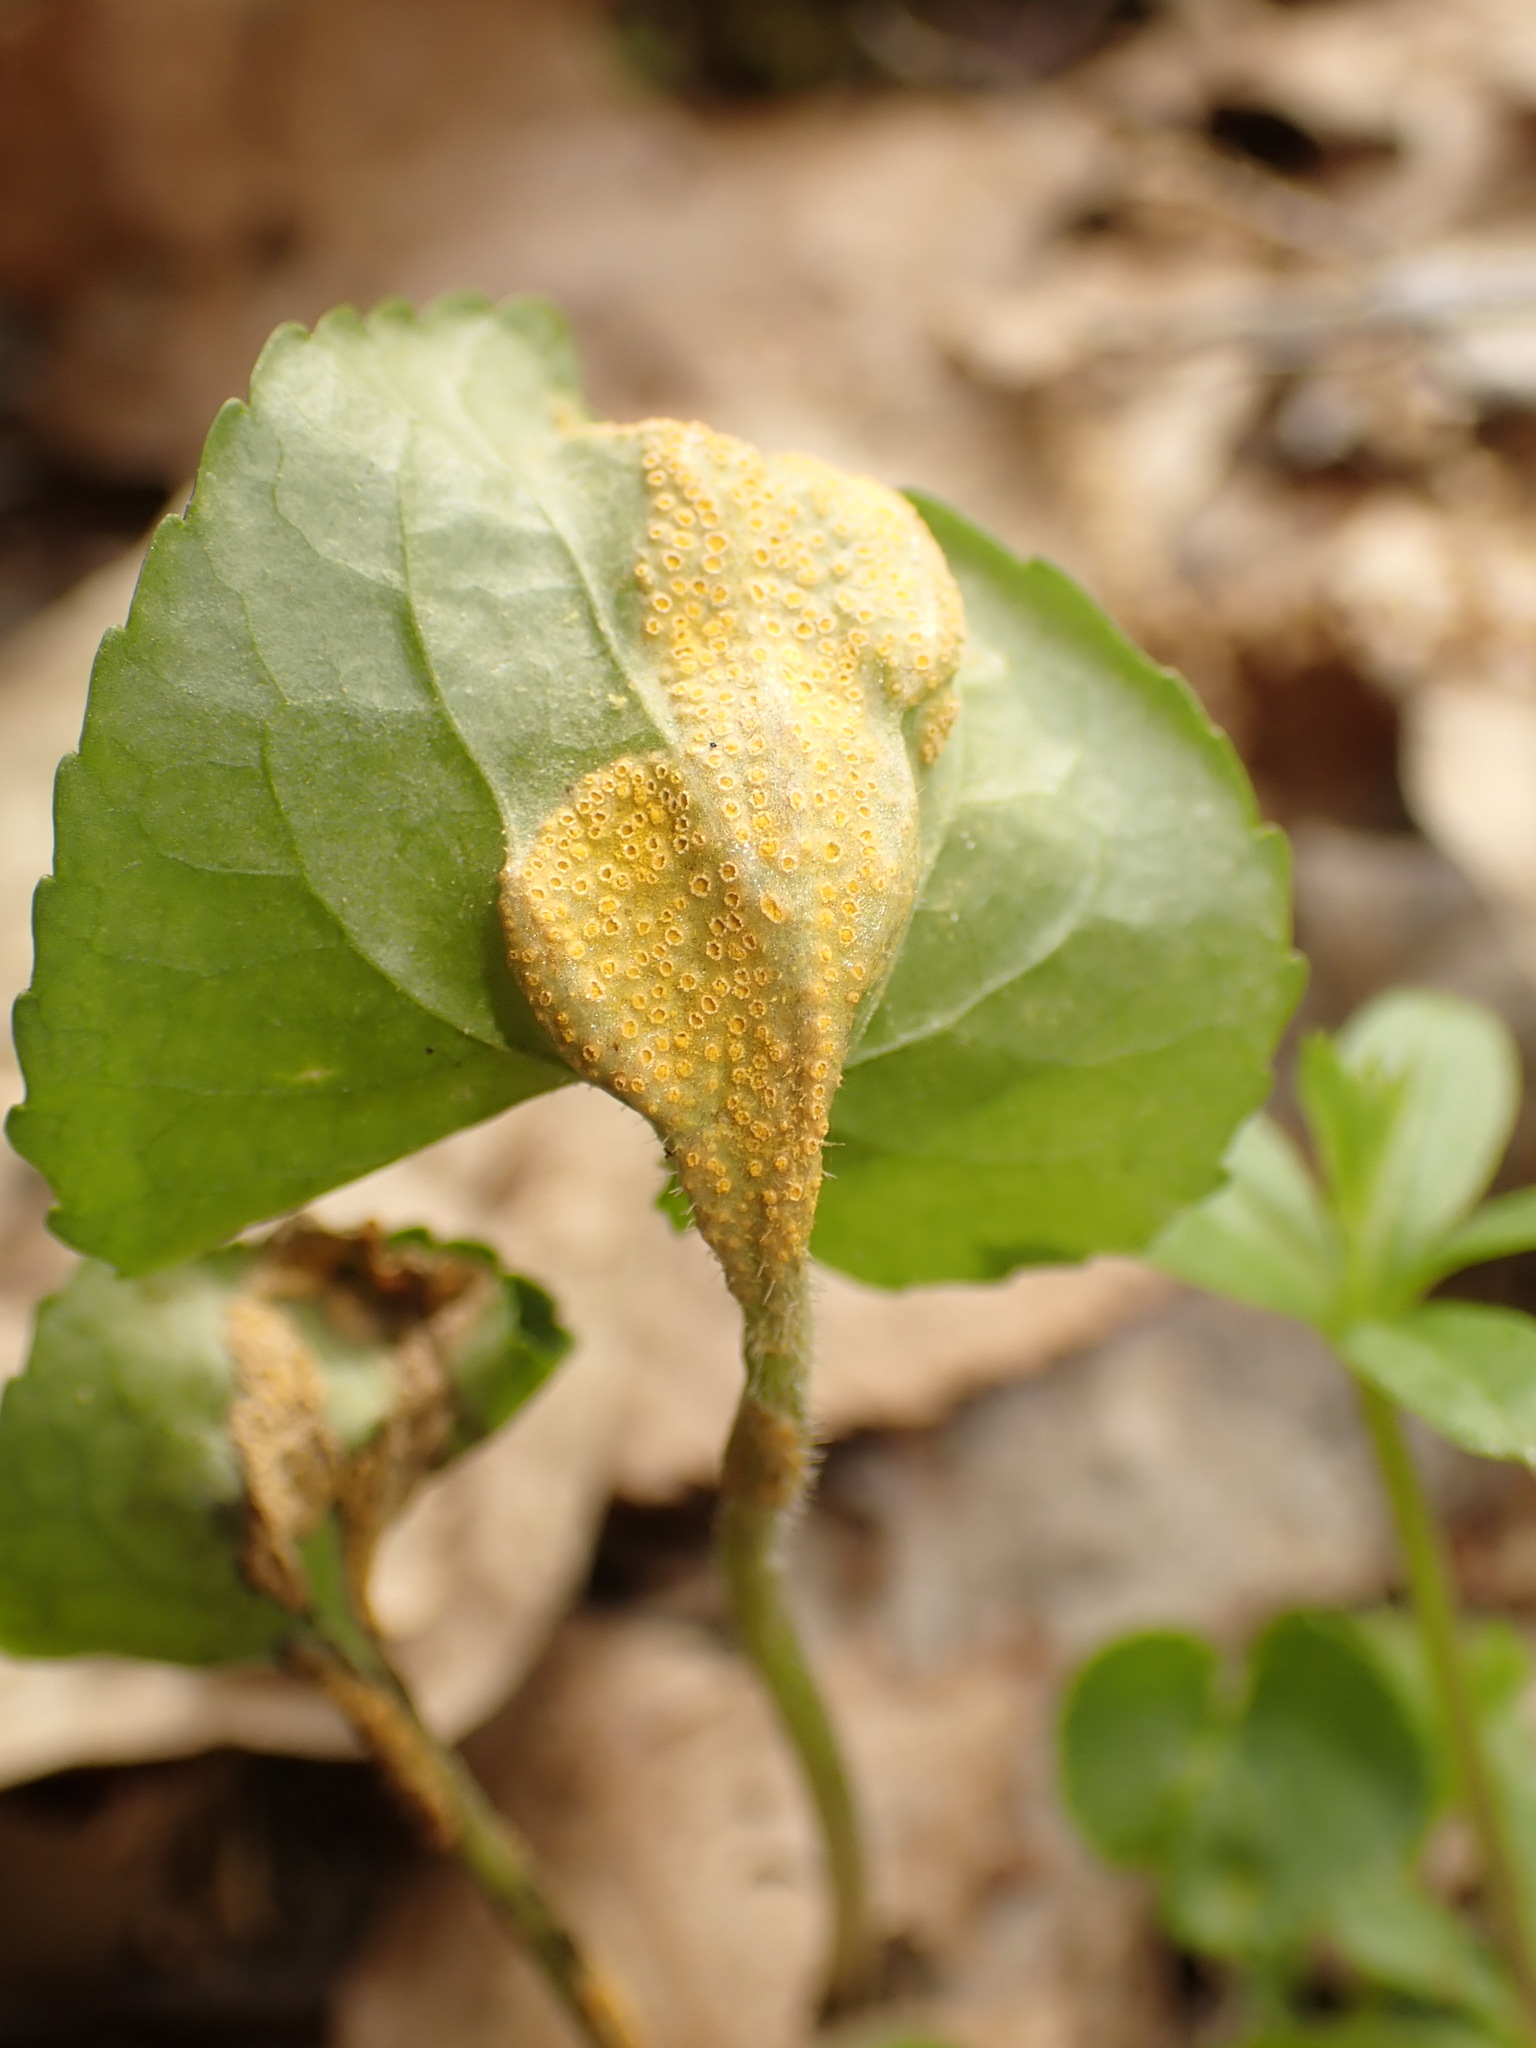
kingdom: Fungi
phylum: Basidiomycota
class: Pucciniomycetes
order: Pucciniales
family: Pucciniaceae
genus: Puccinia
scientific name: Puccinia violae
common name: Violet rust
